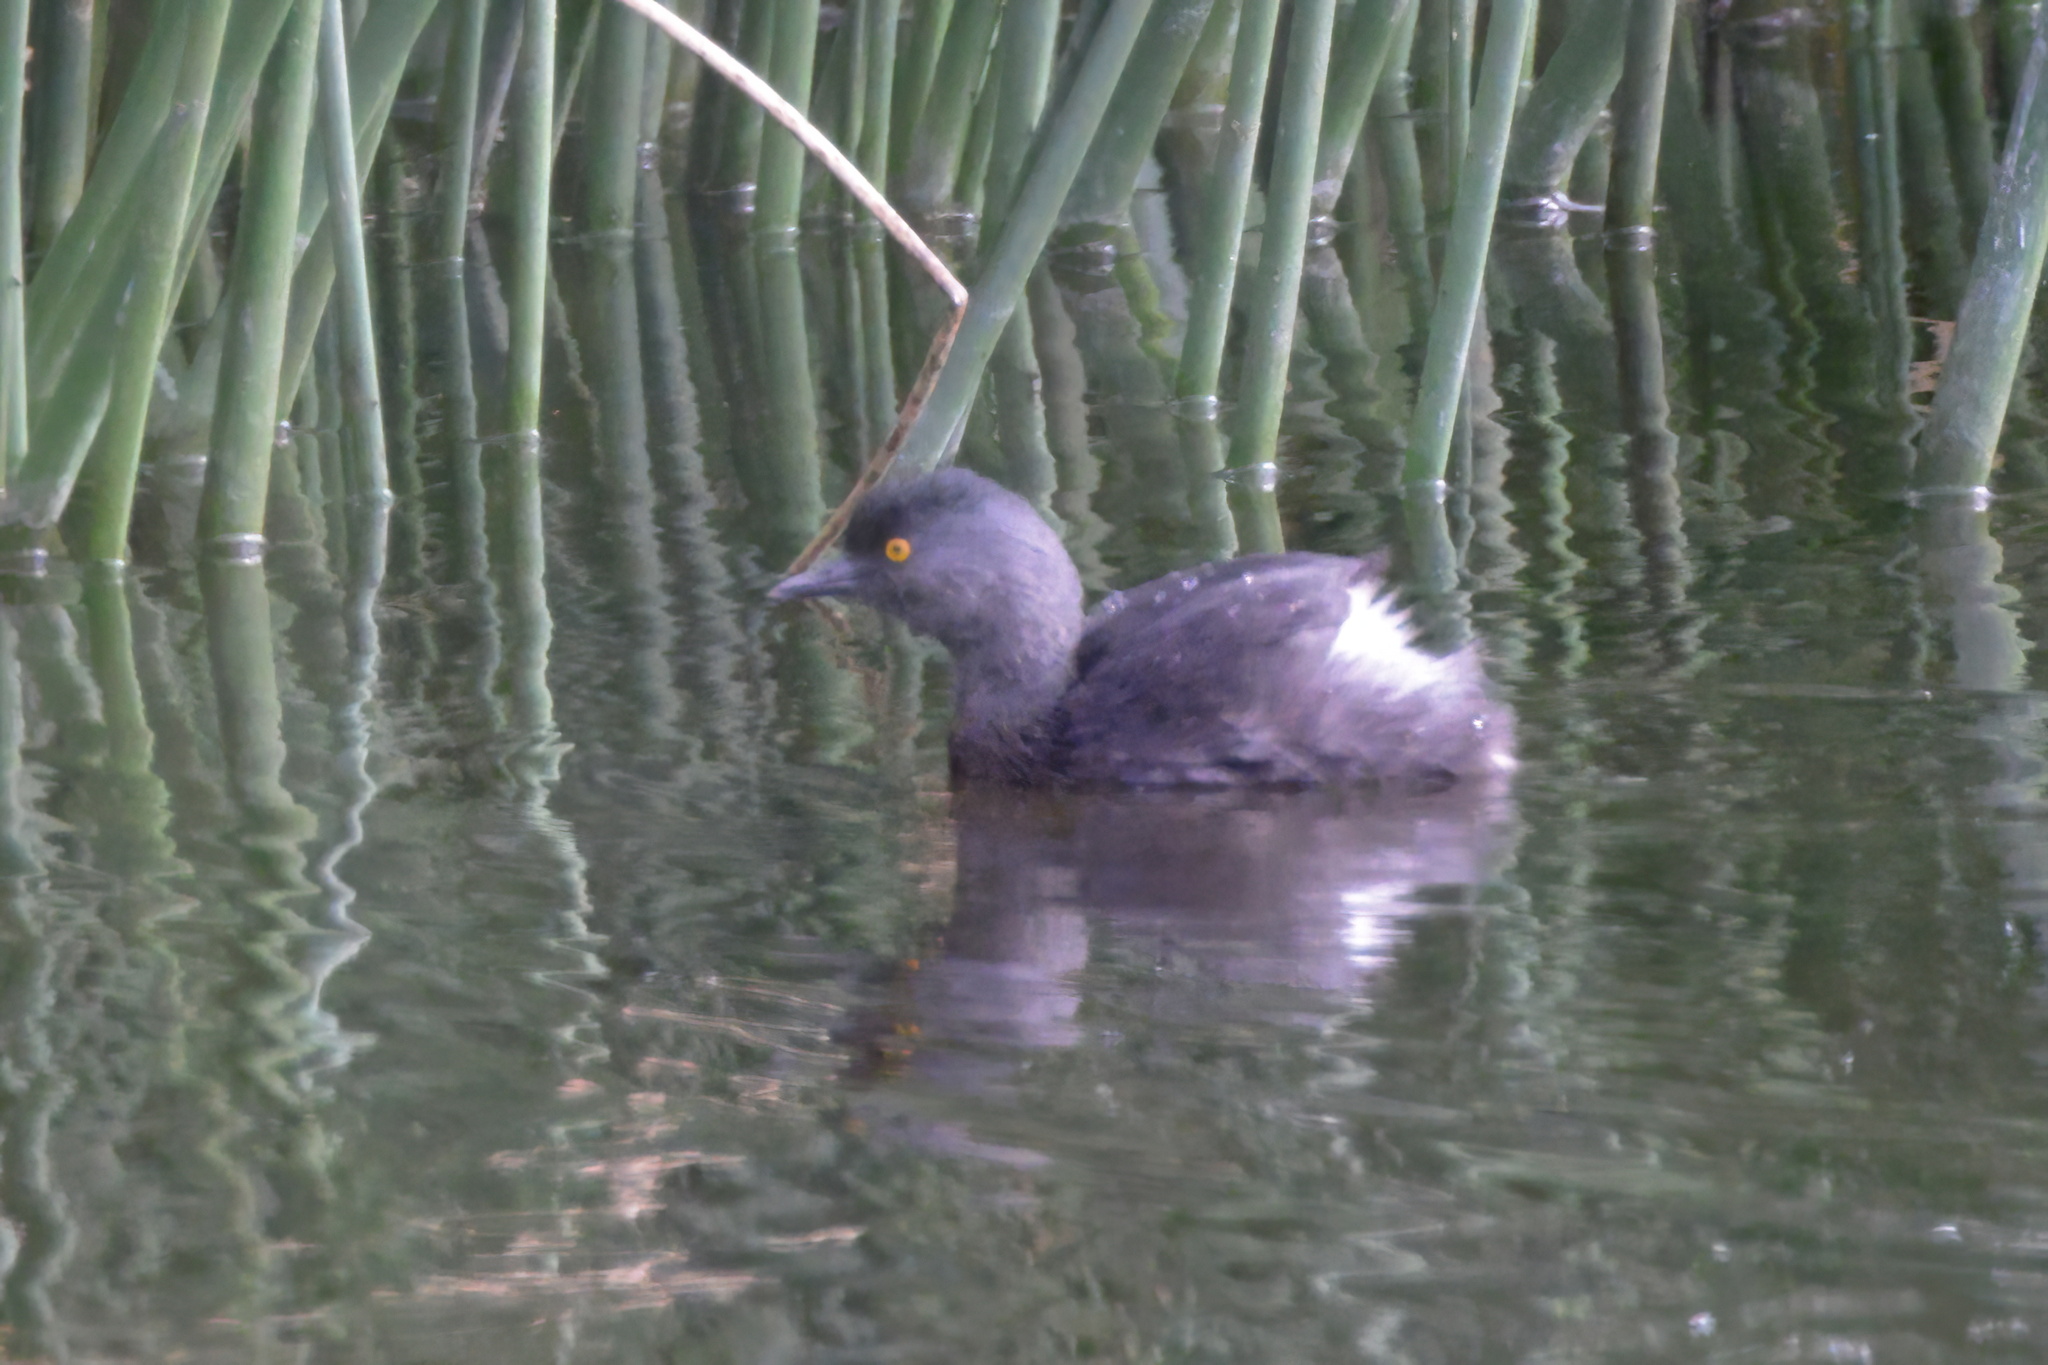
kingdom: Animalia
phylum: Chordata
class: Aves
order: Podicipediformes
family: Podicipedidae
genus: Tachybaptus
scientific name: Tachybaptus dominicus
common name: Least grebe
